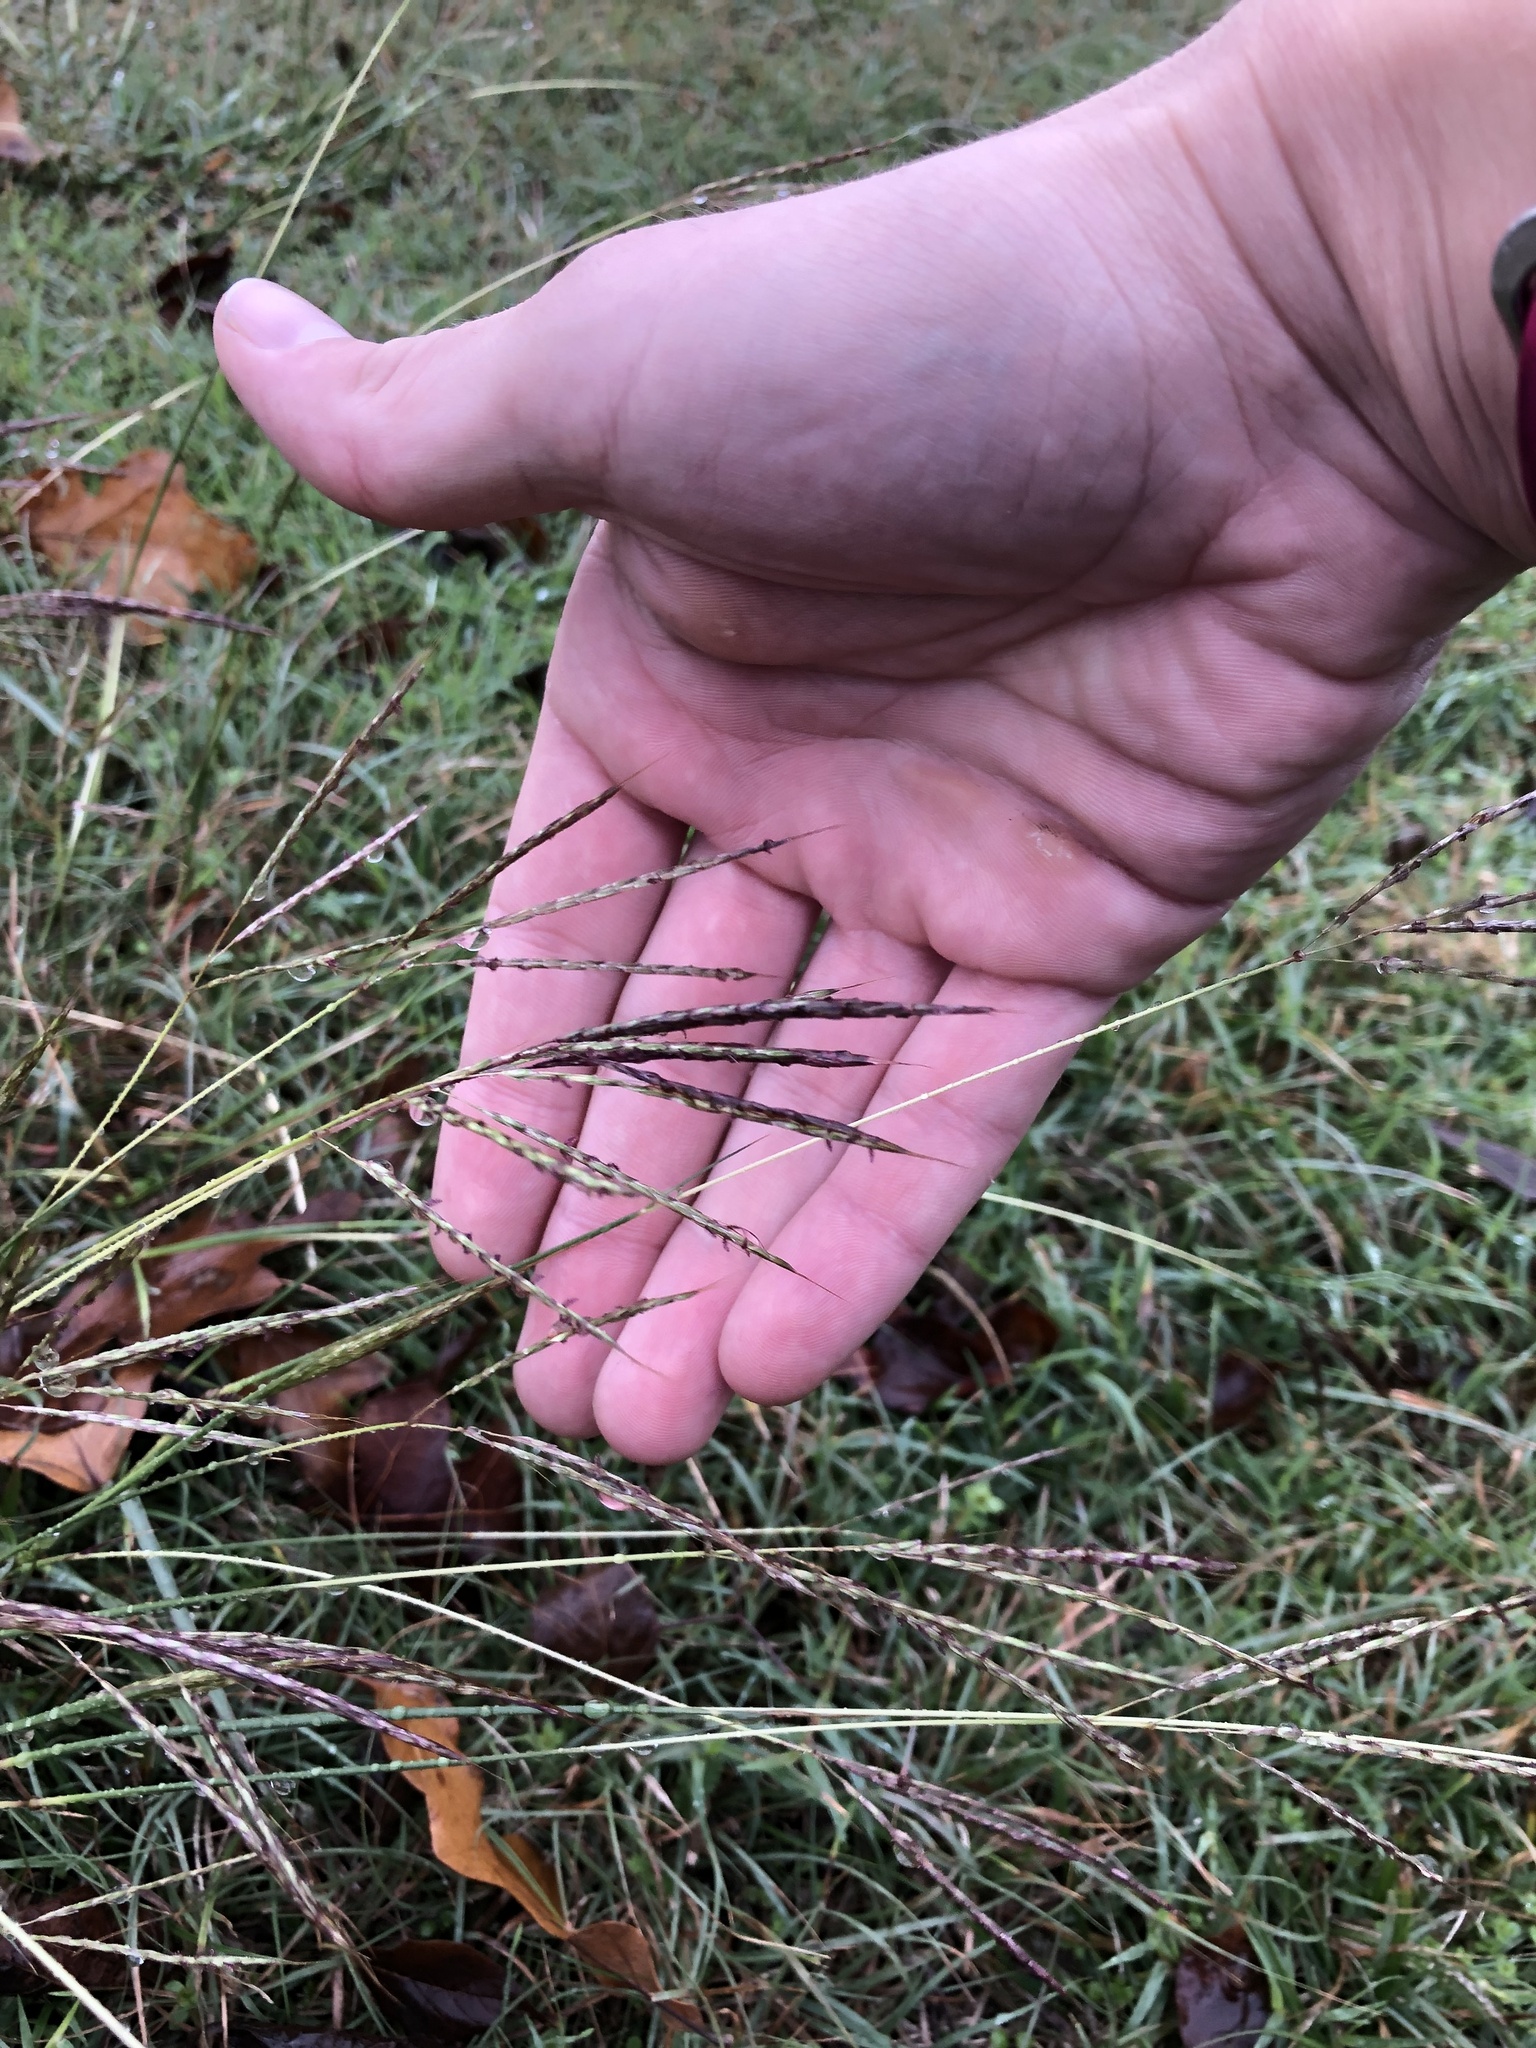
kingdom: Plantae
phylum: Tracheophyta
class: Liliopsida
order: Poales
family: Poaceae
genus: Bothriochloa
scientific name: Bothriochloa ischaemum
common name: Yellow bluestem
